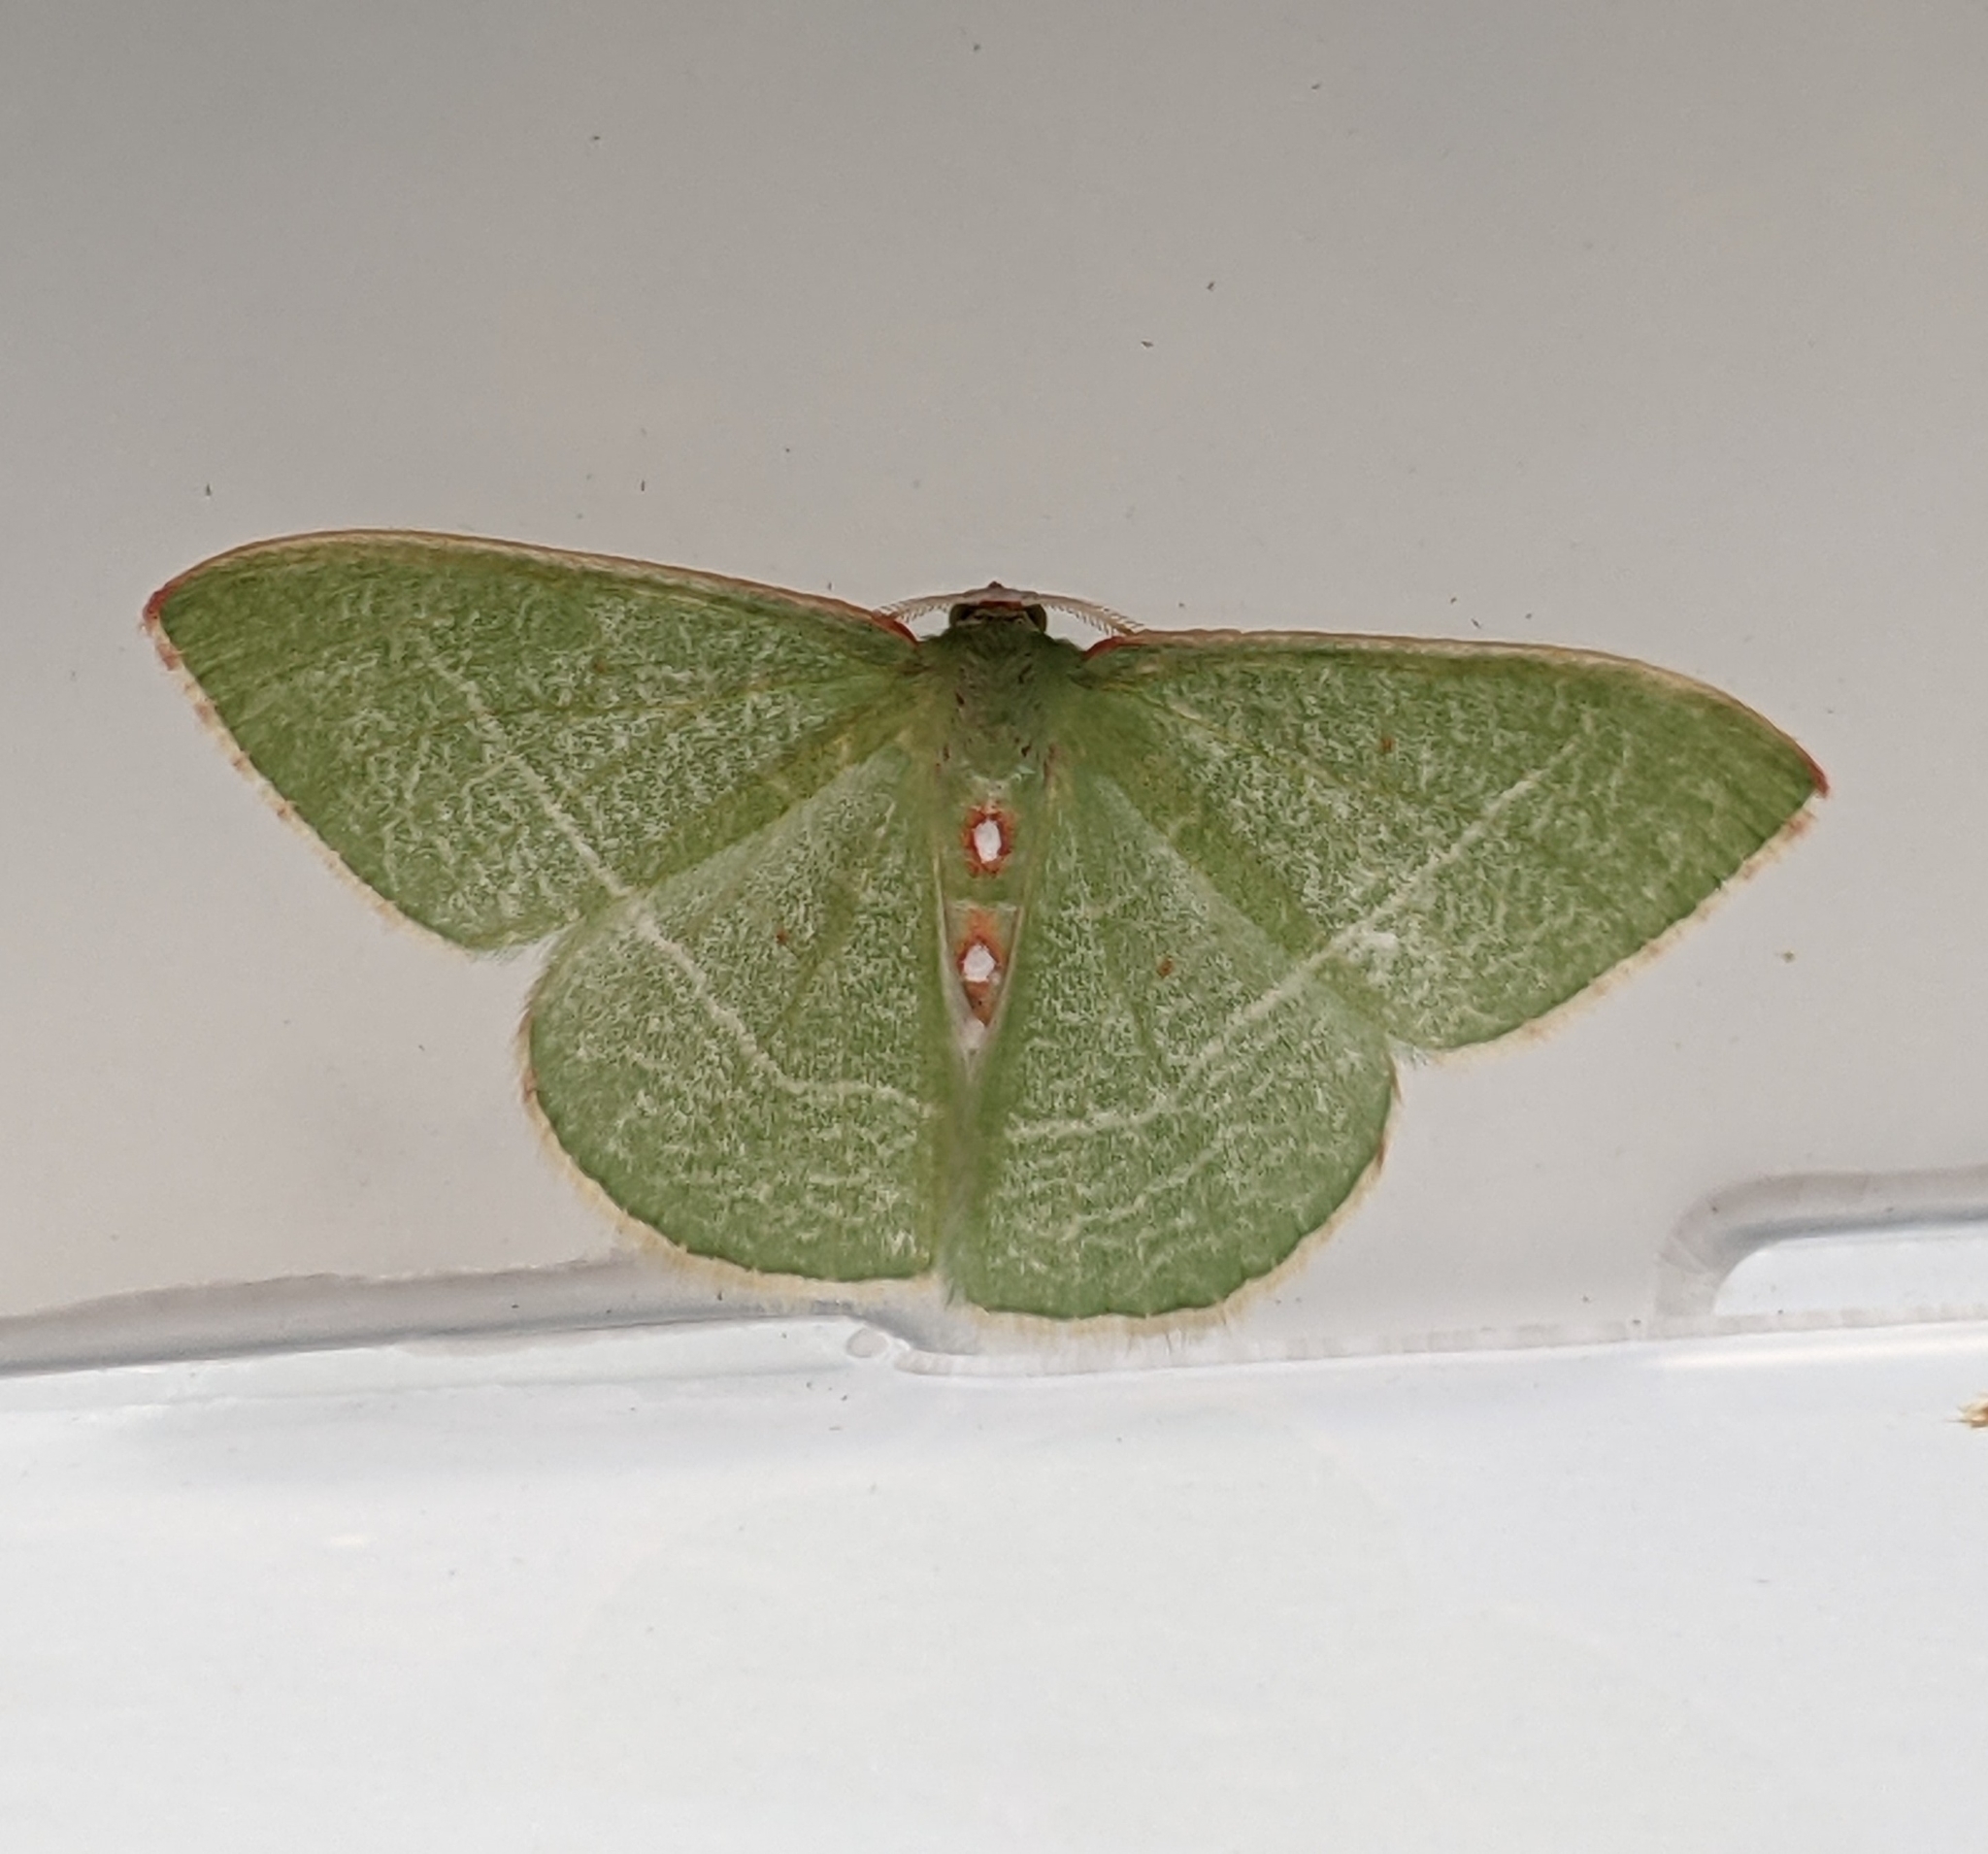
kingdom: Animalia
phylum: Arthropoda
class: Insecta
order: Lepidoptera
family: Geometridae
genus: Nemoria
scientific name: Nemoria darwiniata
